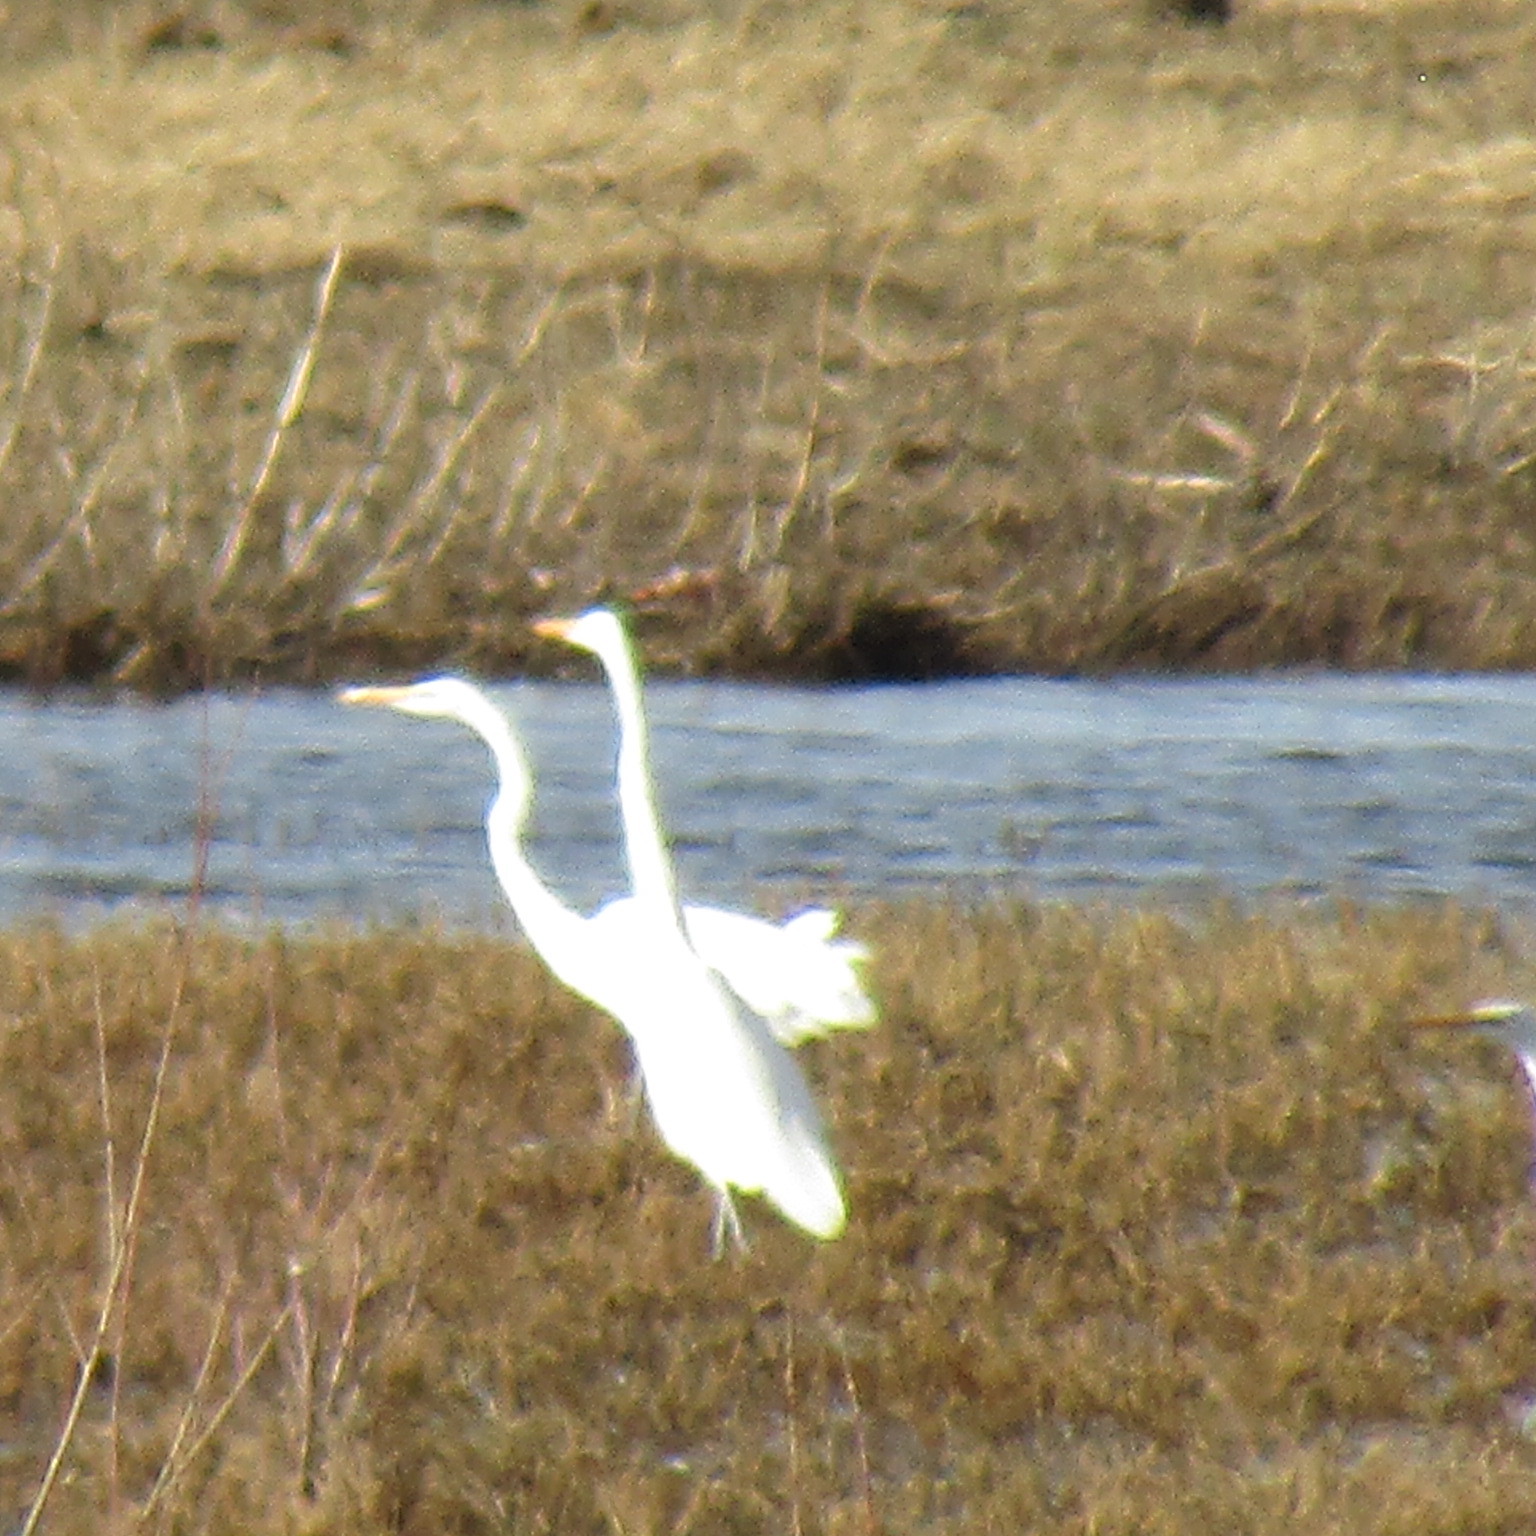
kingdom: Animalia
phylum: Chordata
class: Aves
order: Pelecaniformes
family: Ardeidae
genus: Ardea
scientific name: Ardea alba
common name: Great egret
